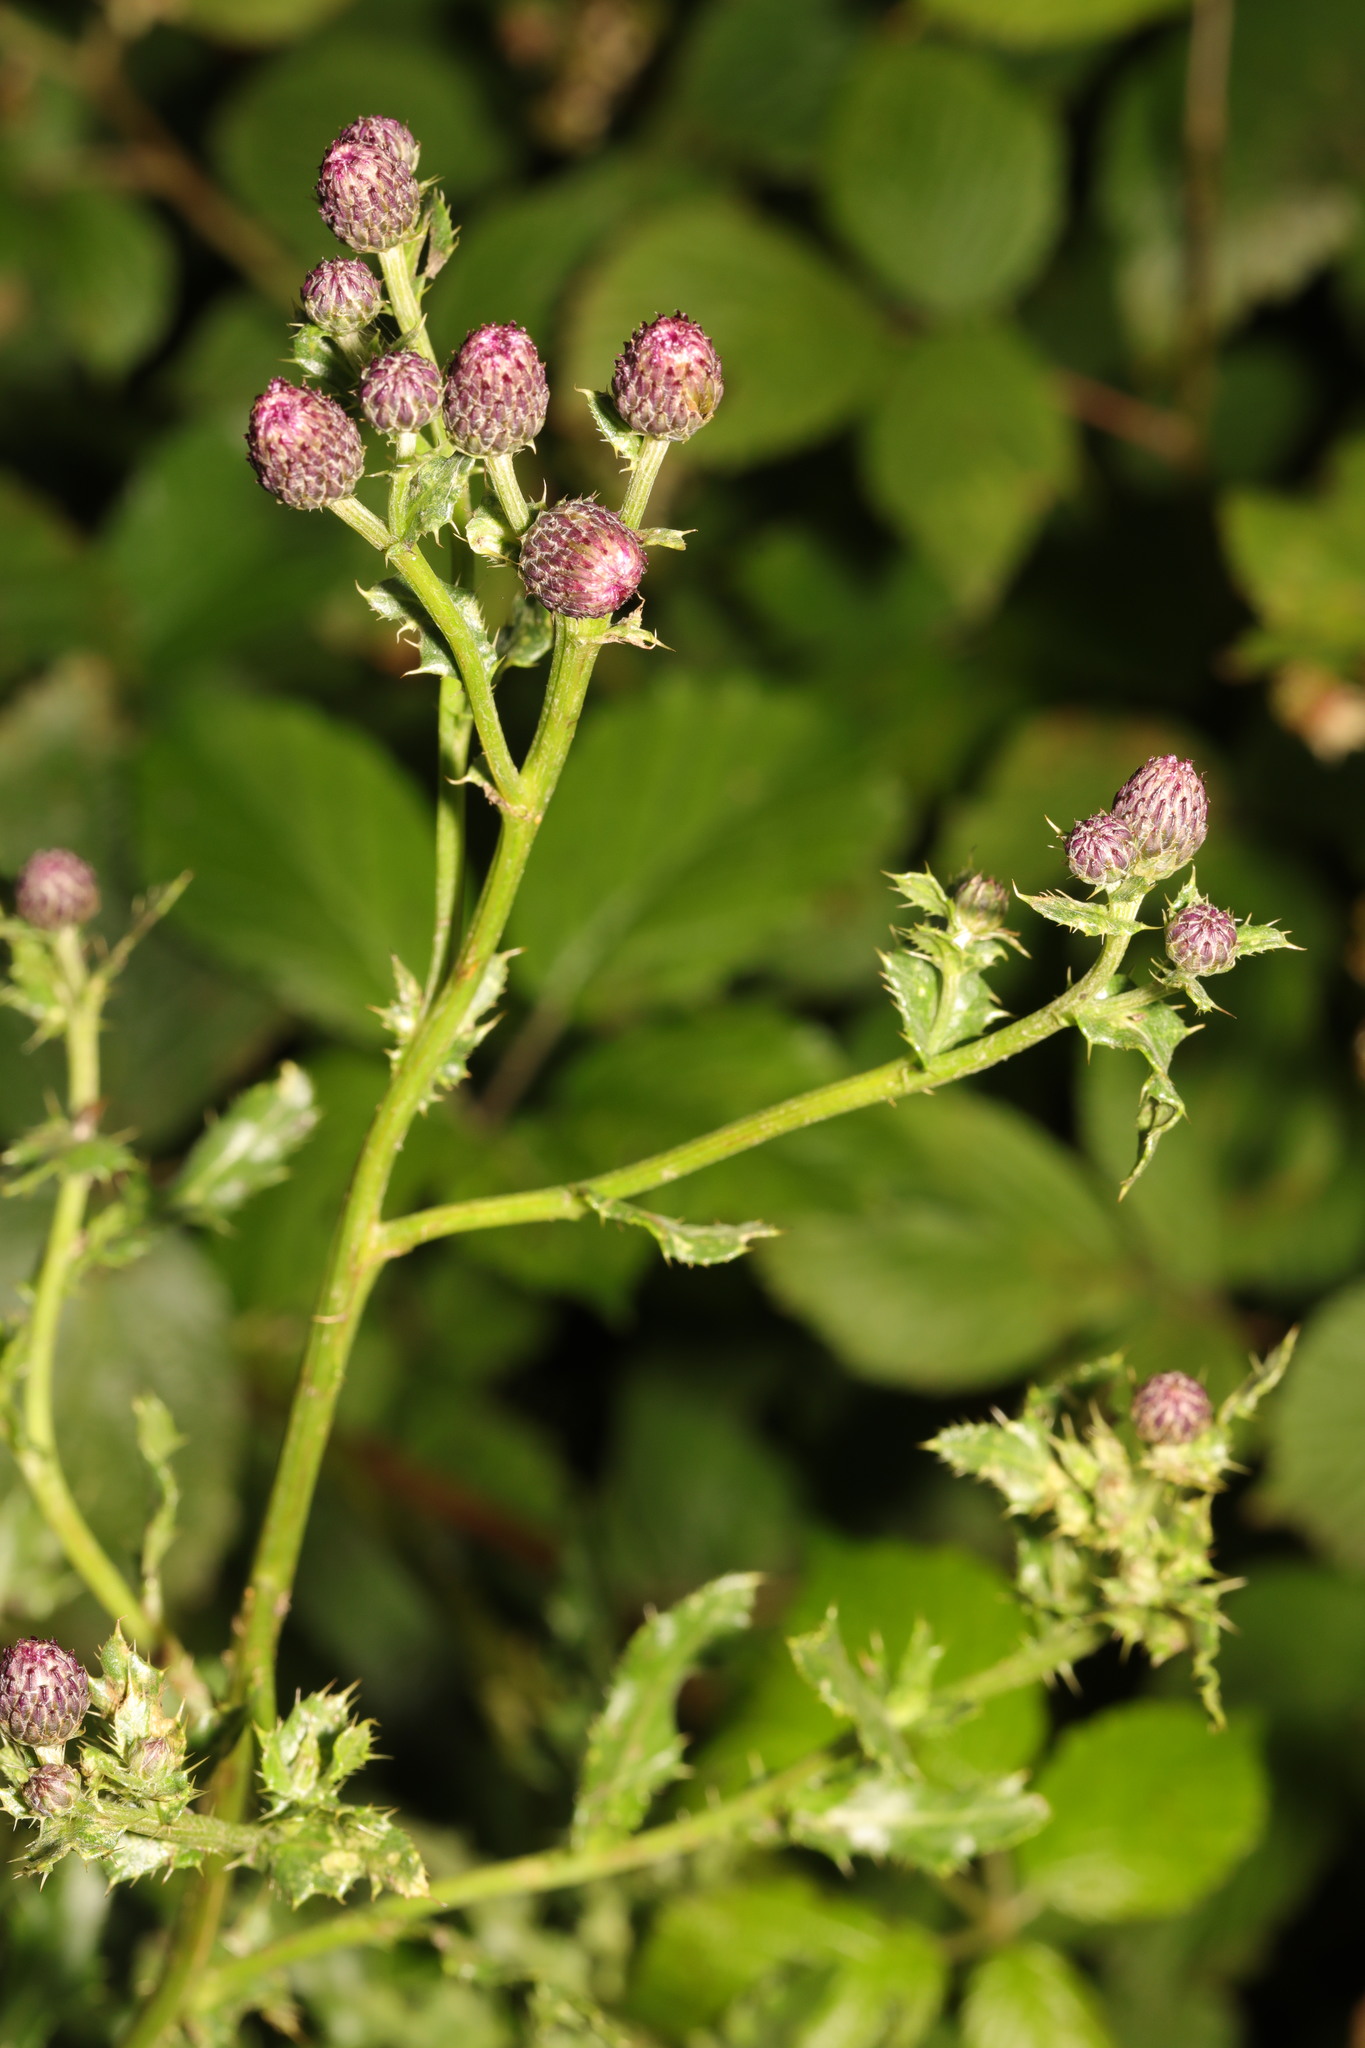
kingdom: Plantae
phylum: Tracheophyta
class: Magnoliopsida
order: Asterales
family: Asteraceae
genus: Cirsium
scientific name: Cirsium arvense
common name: Creeping thistle
